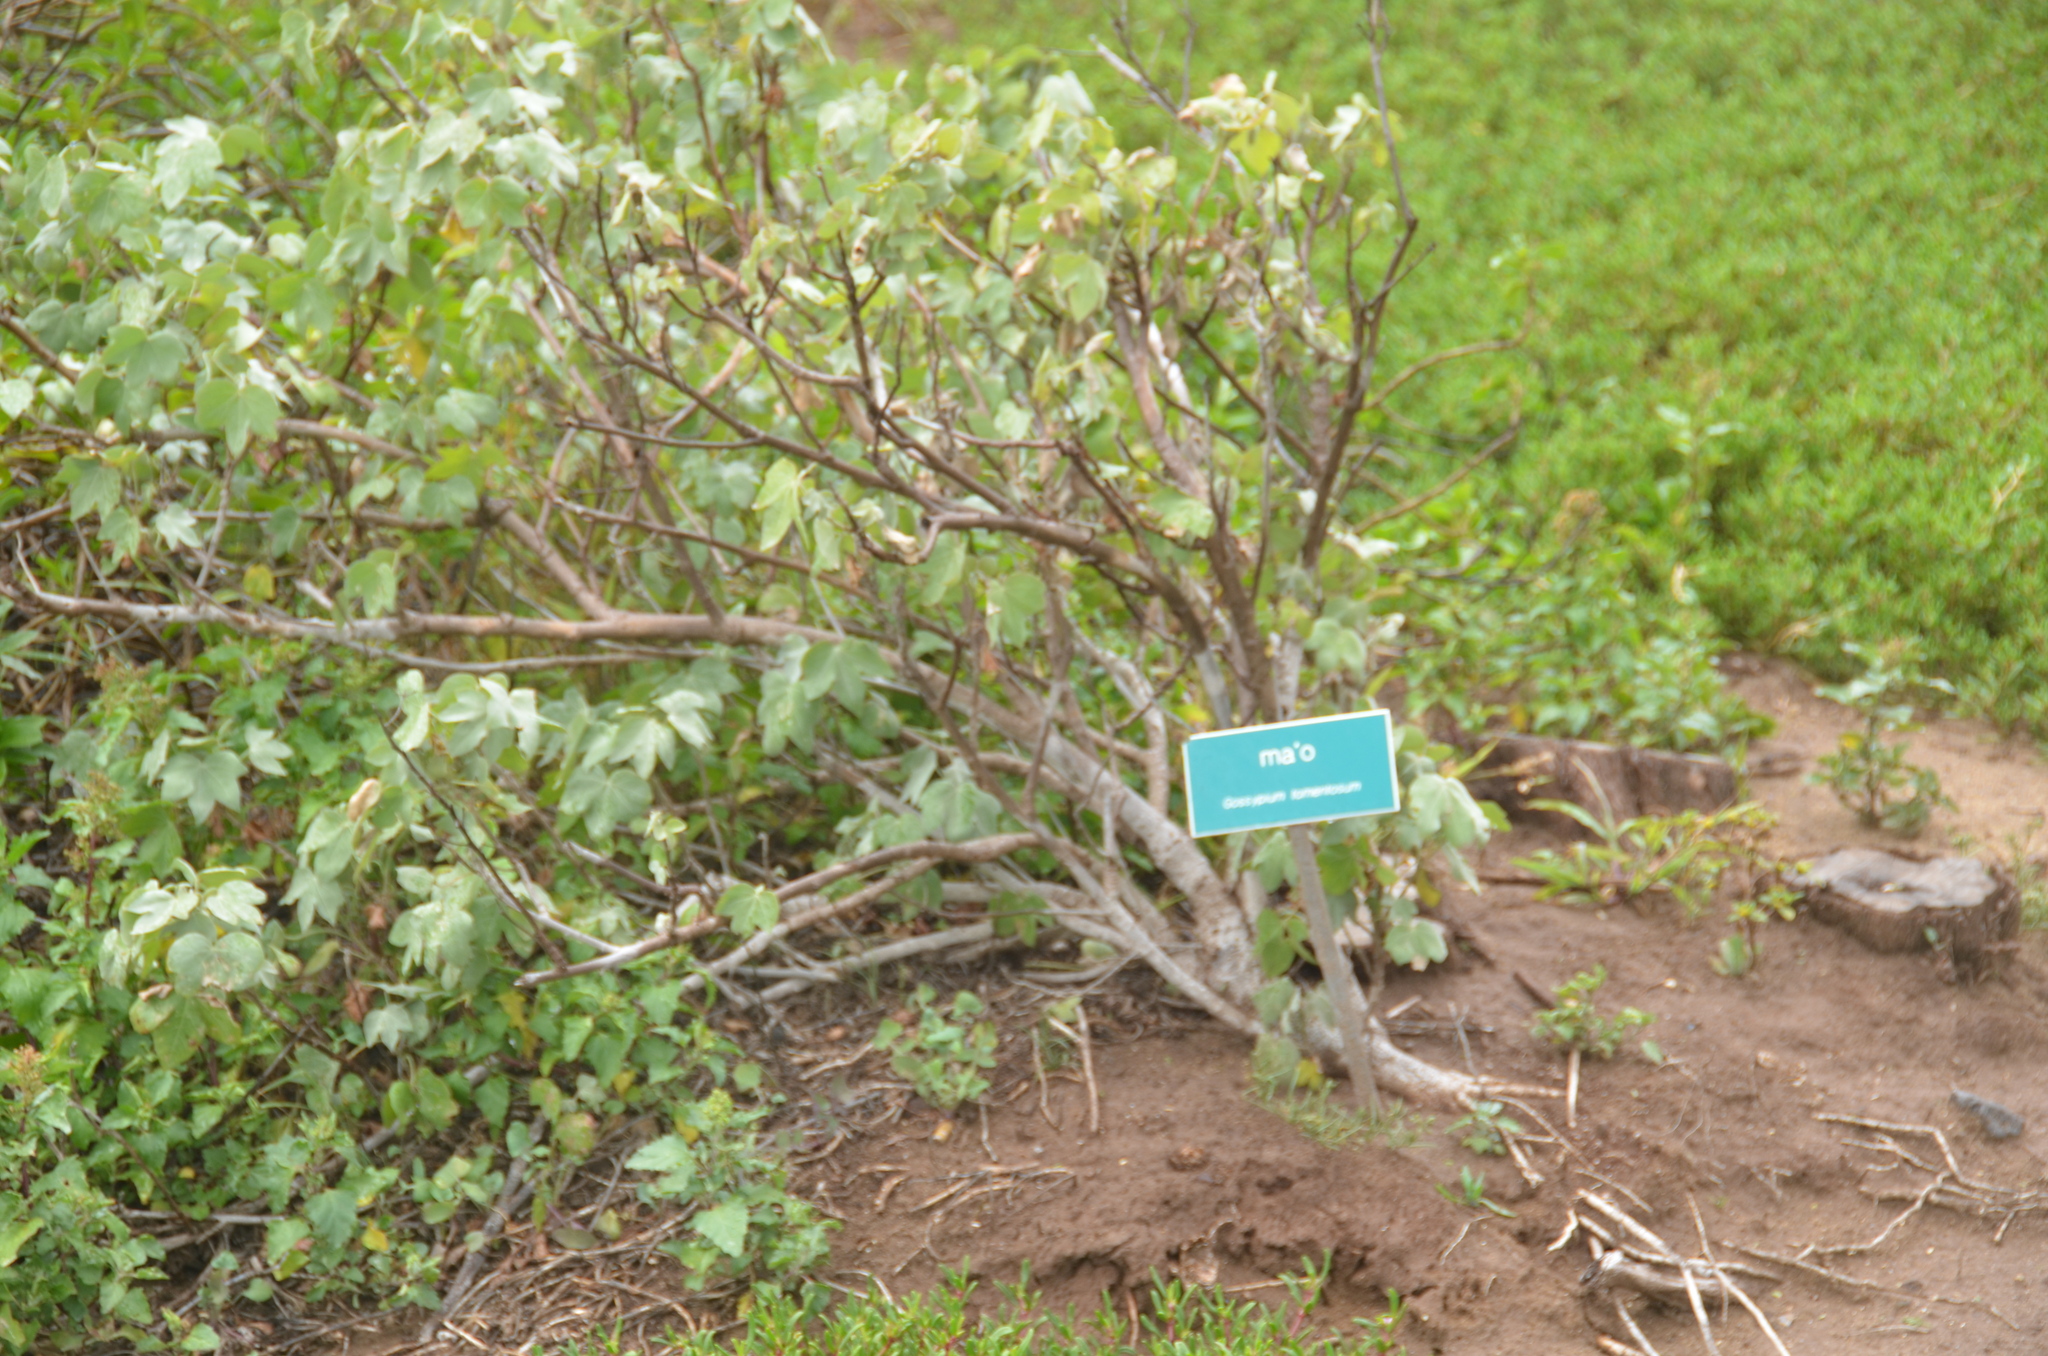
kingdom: Plantae
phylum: Tracheophyta
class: Magnoliopsida
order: Malvales
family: Malvaceae
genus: Gossypium
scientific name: Gossypium tomentosum
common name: Hawaiian cotton
